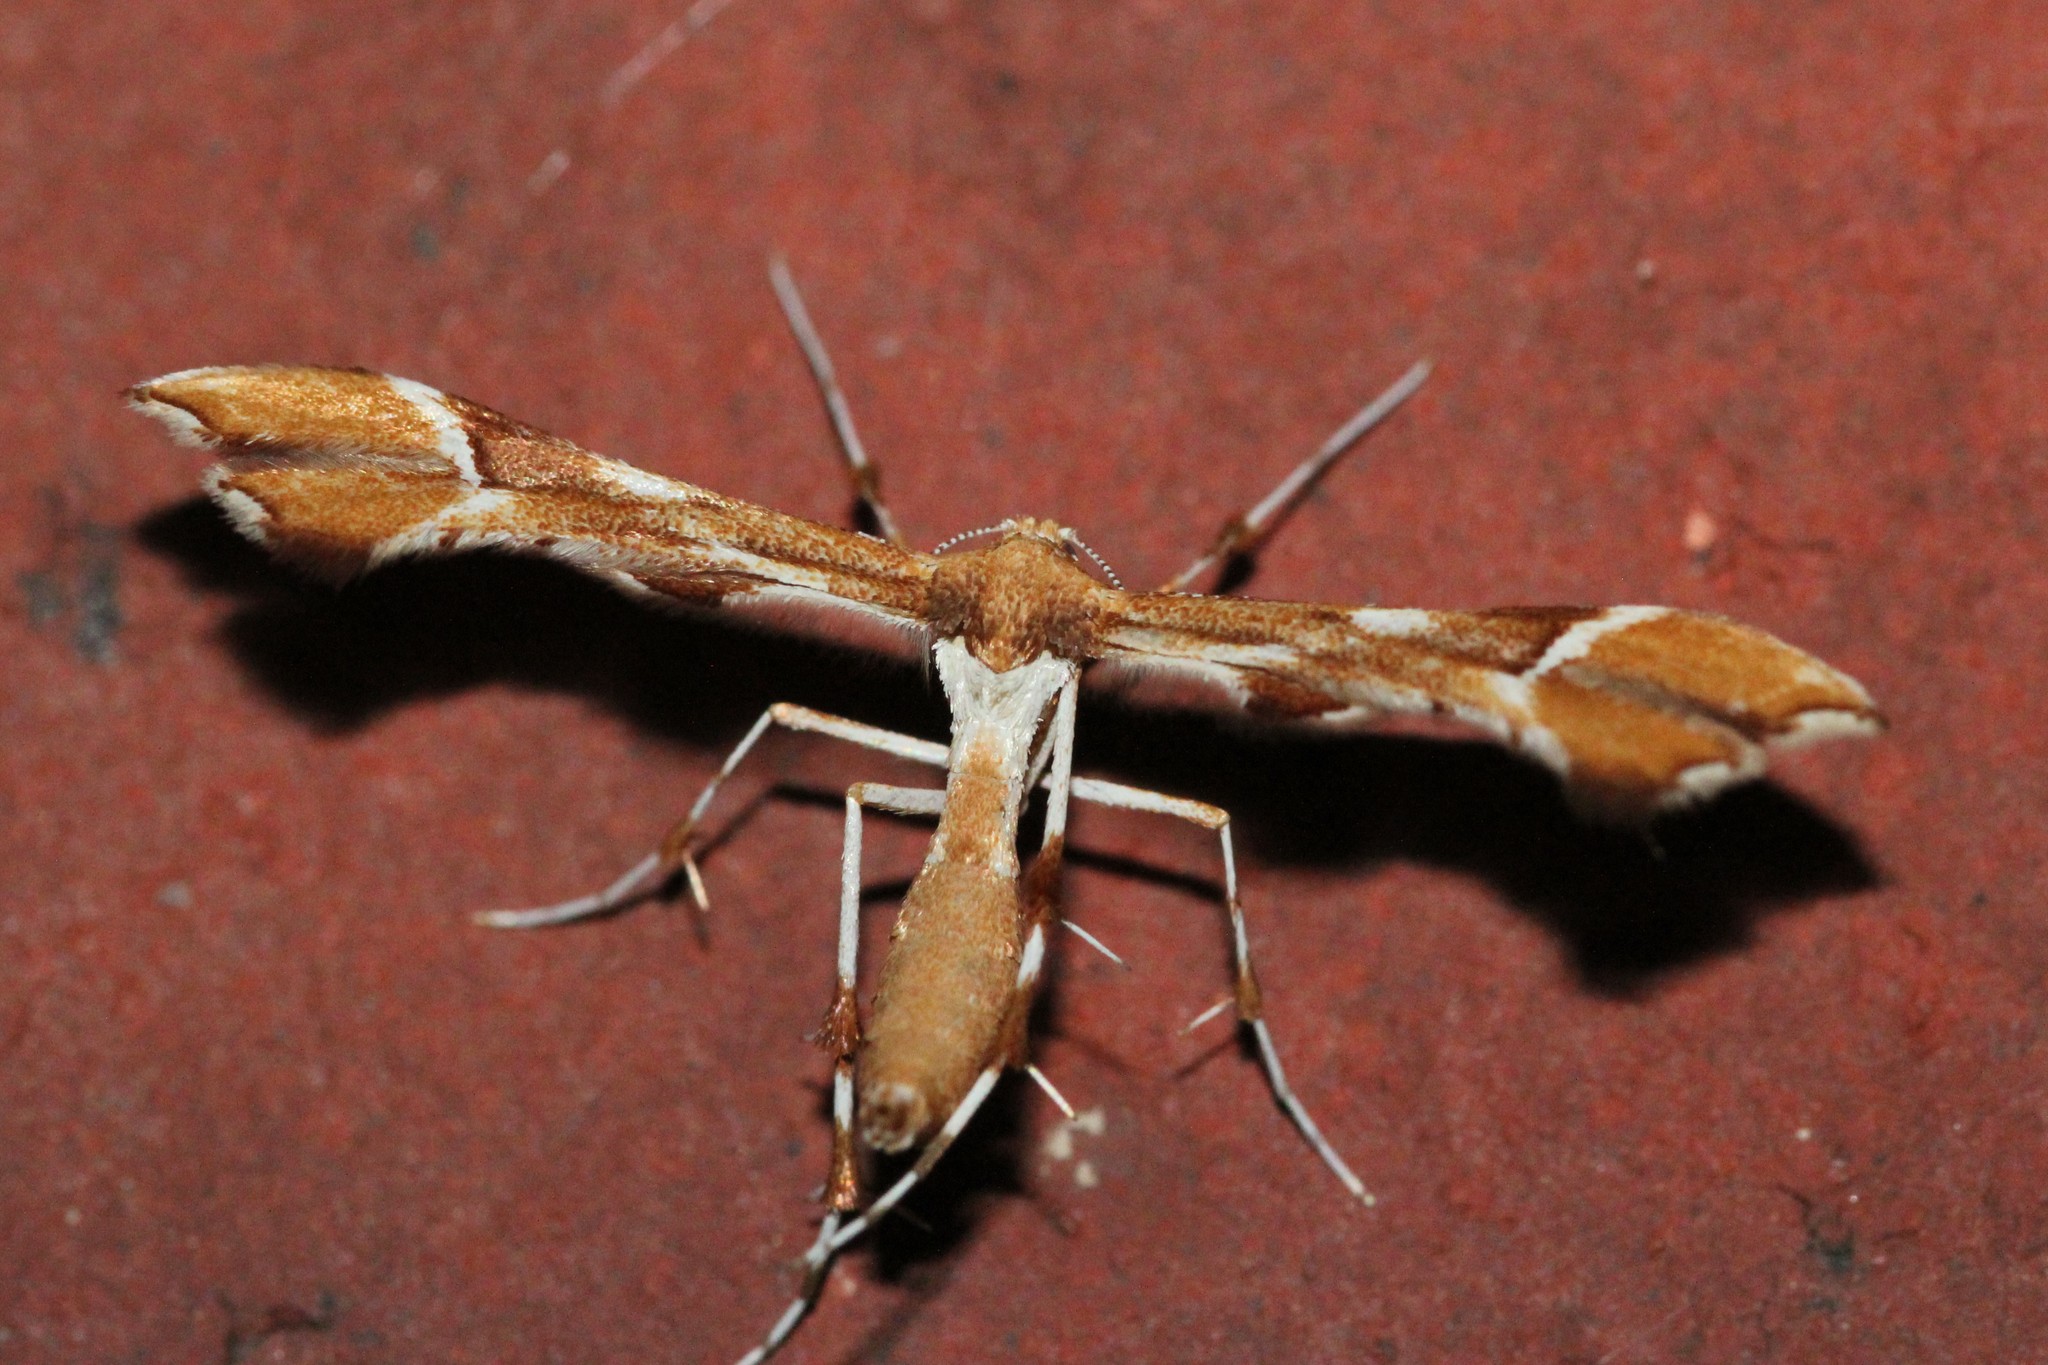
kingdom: Animalia
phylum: Arthropoda
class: Insecta
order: Lepidoptera
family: Pterophoridae
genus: Cnaemidophorus
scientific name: Cnaemidophorus rhododactyla
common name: Rose plume
